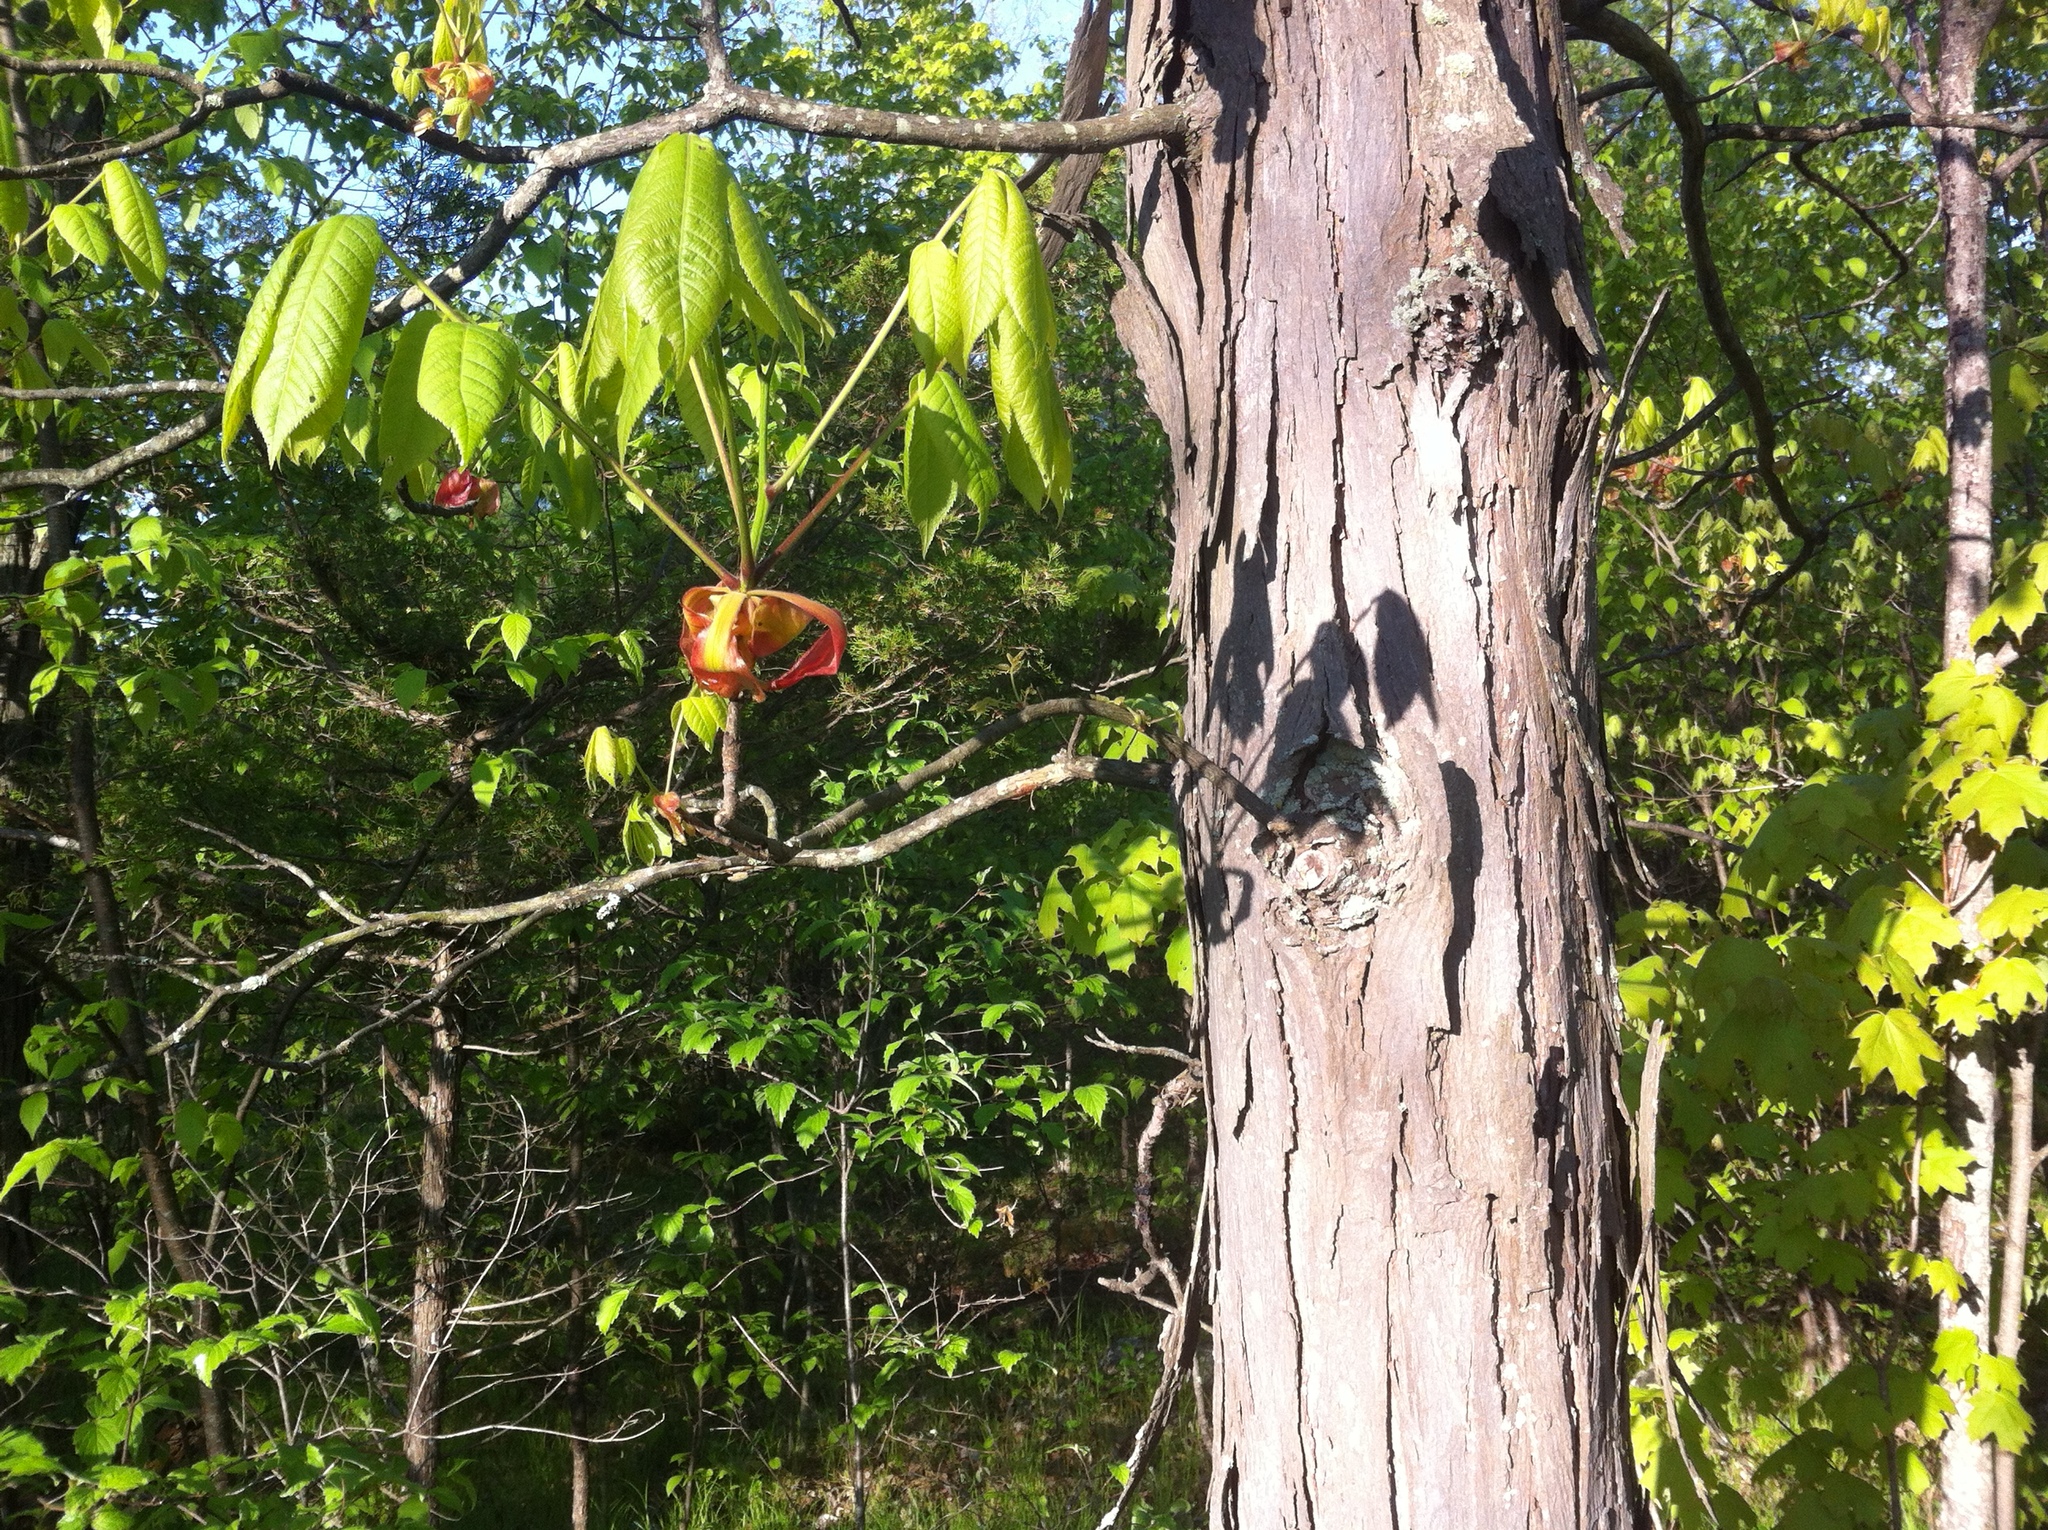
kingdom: Plantae
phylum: Tracheophyta
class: Magnoliopsida
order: Fagales
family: Juglandaceae
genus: Carya
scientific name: Carya ovata
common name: Shagbark hickory
